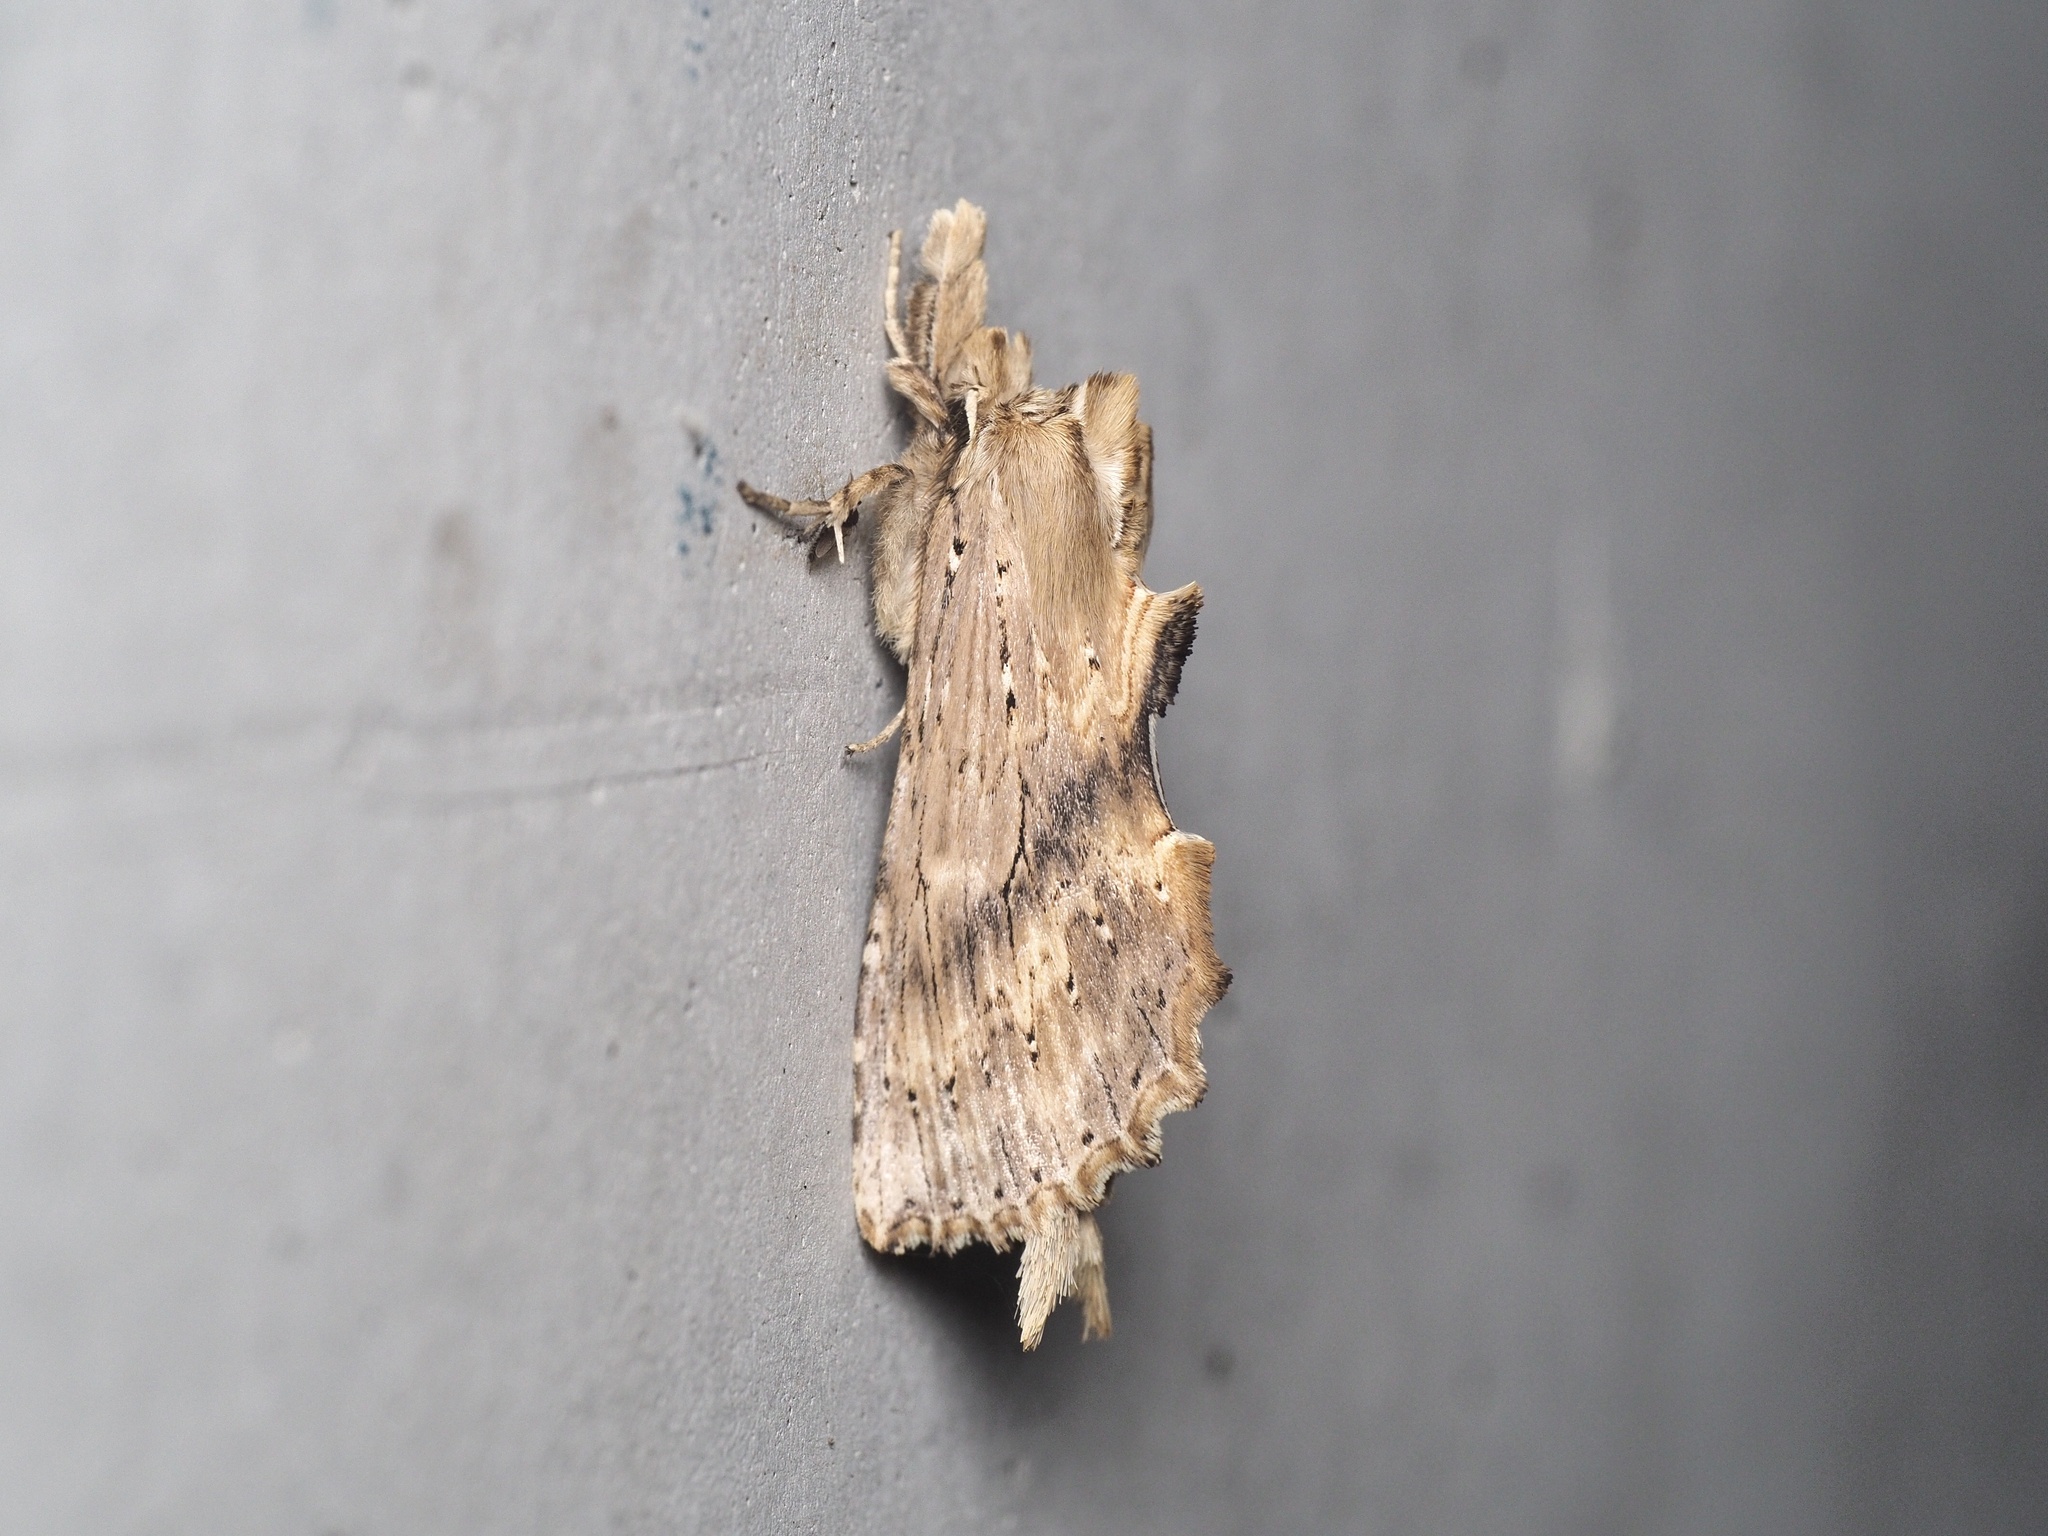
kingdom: Animalia
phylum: Arthropoda
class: Insecta
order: Lepidoptera
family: Notodontidae
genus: Pterostoma
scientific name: Pterostoma palpina
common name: Pale prominent
